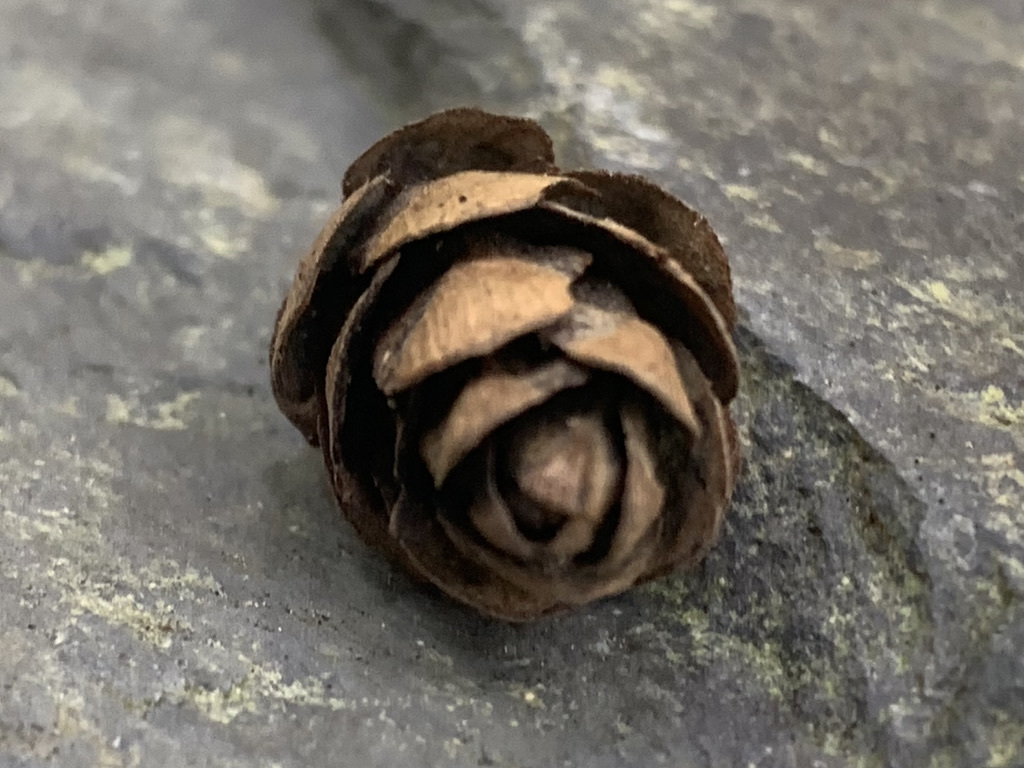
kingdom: Plantae
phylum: Tracheophyta
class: Pinopsida
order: Pinales
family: Pinaceae
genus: Tsuga
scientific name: Tsuga heterophylla
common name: Western hemlock
